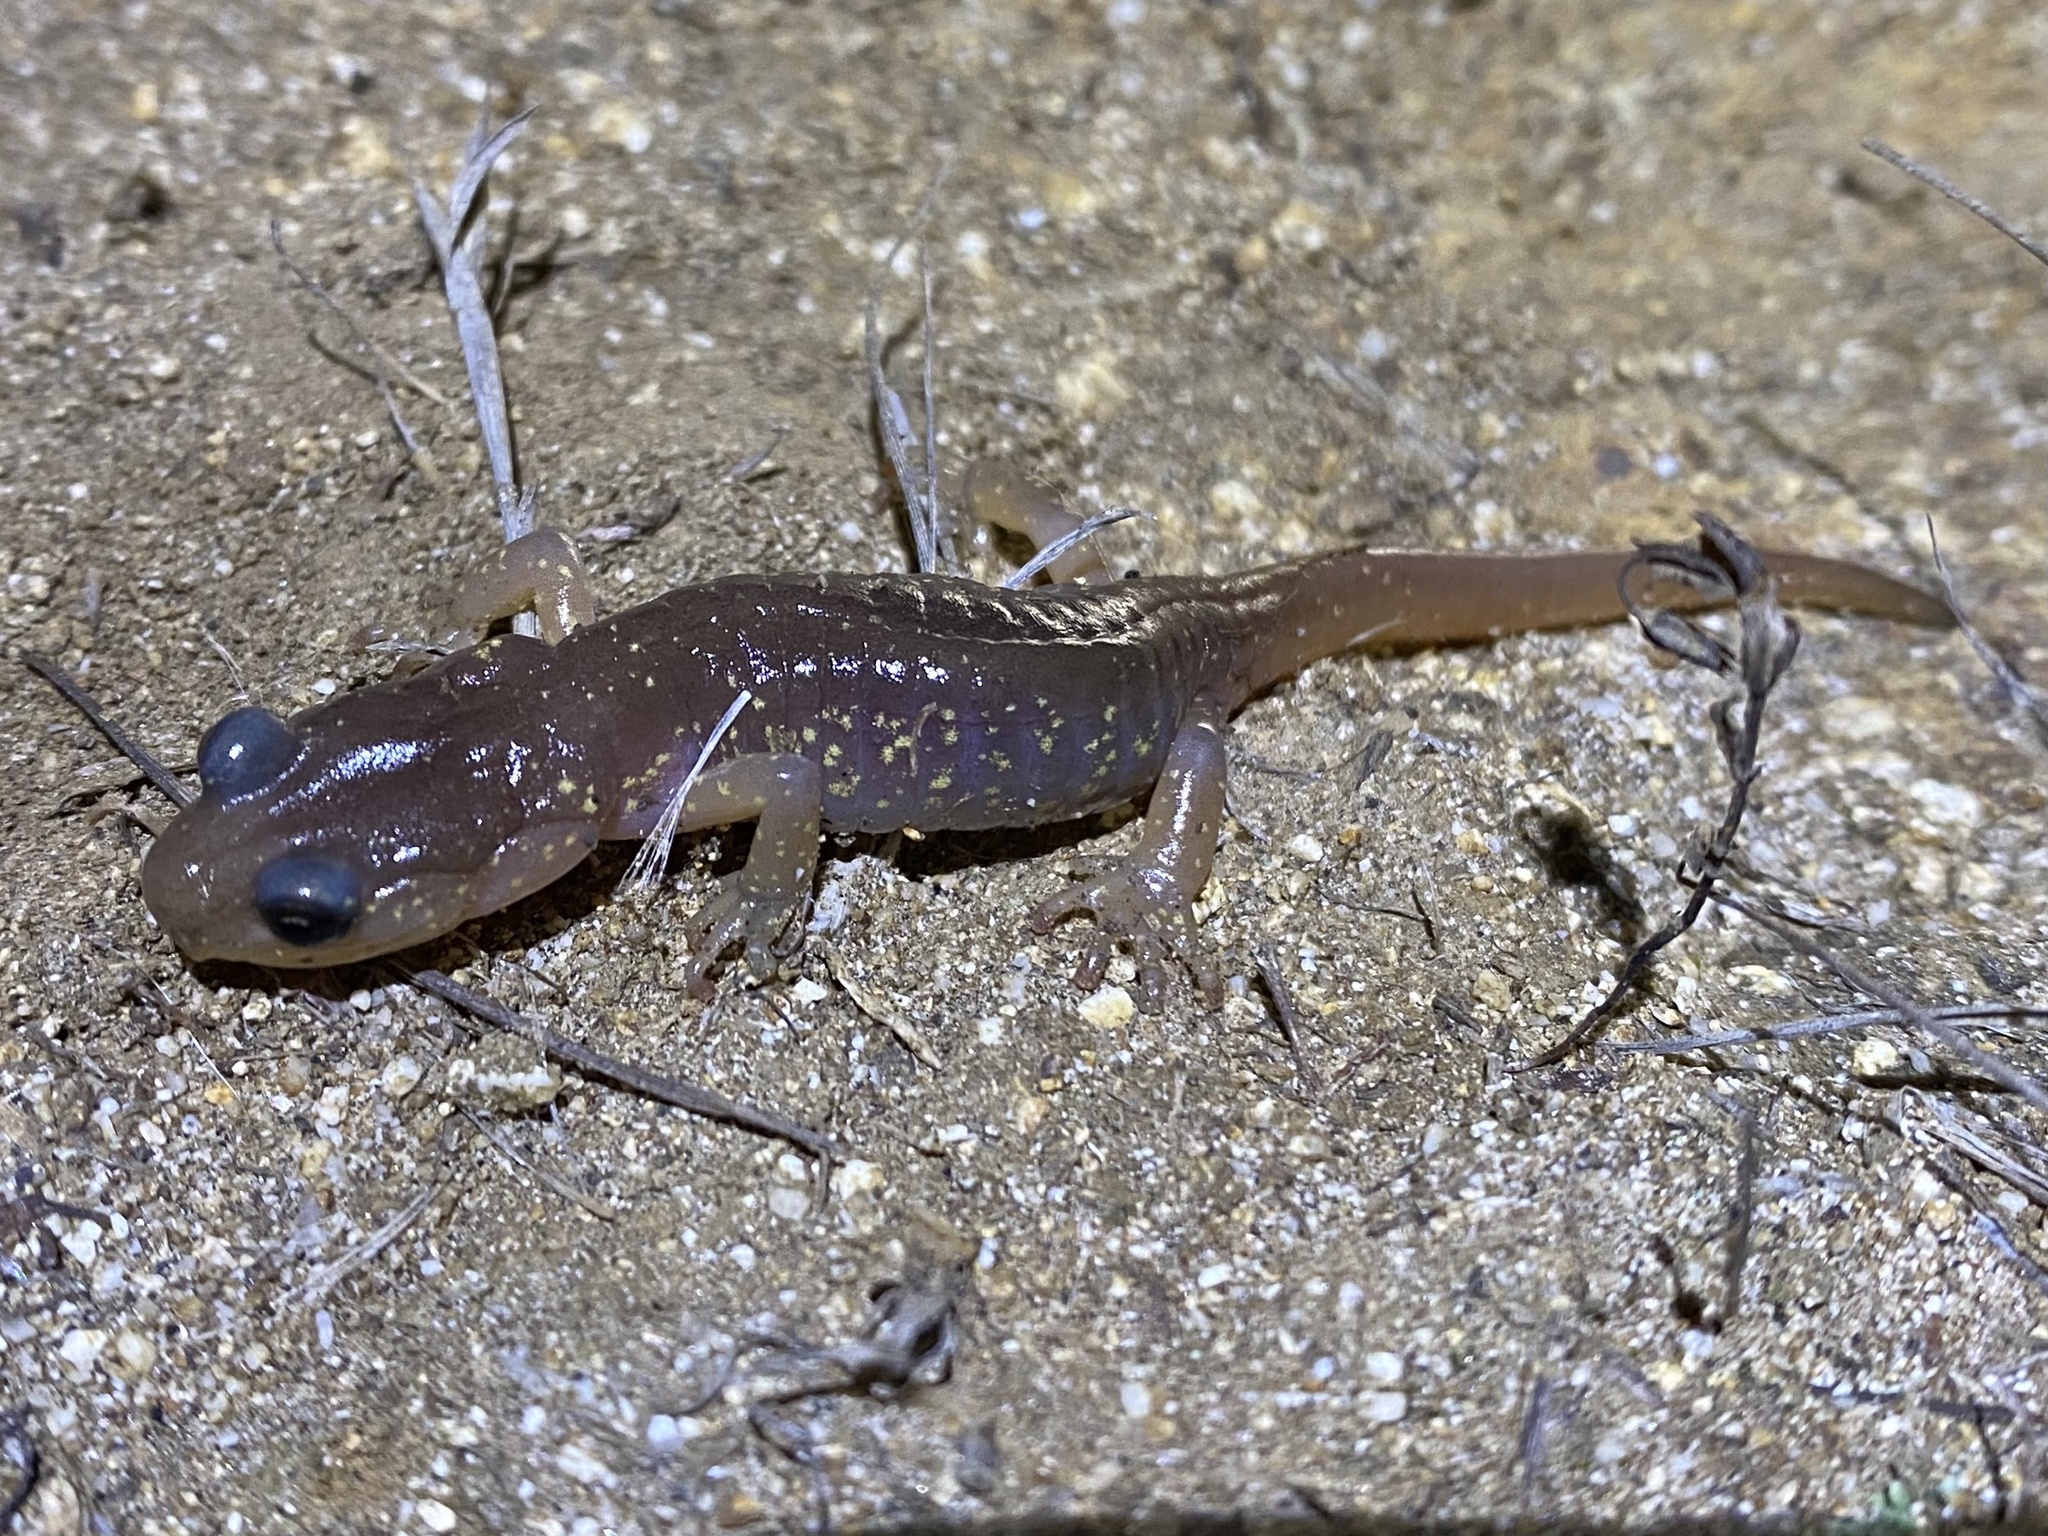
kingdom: Animalia
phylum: Chordata
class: Amphibia
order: Caudata
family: Plethodontidae
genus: Aneides
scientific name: Aneides lugubris
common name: Arboreal salamander
